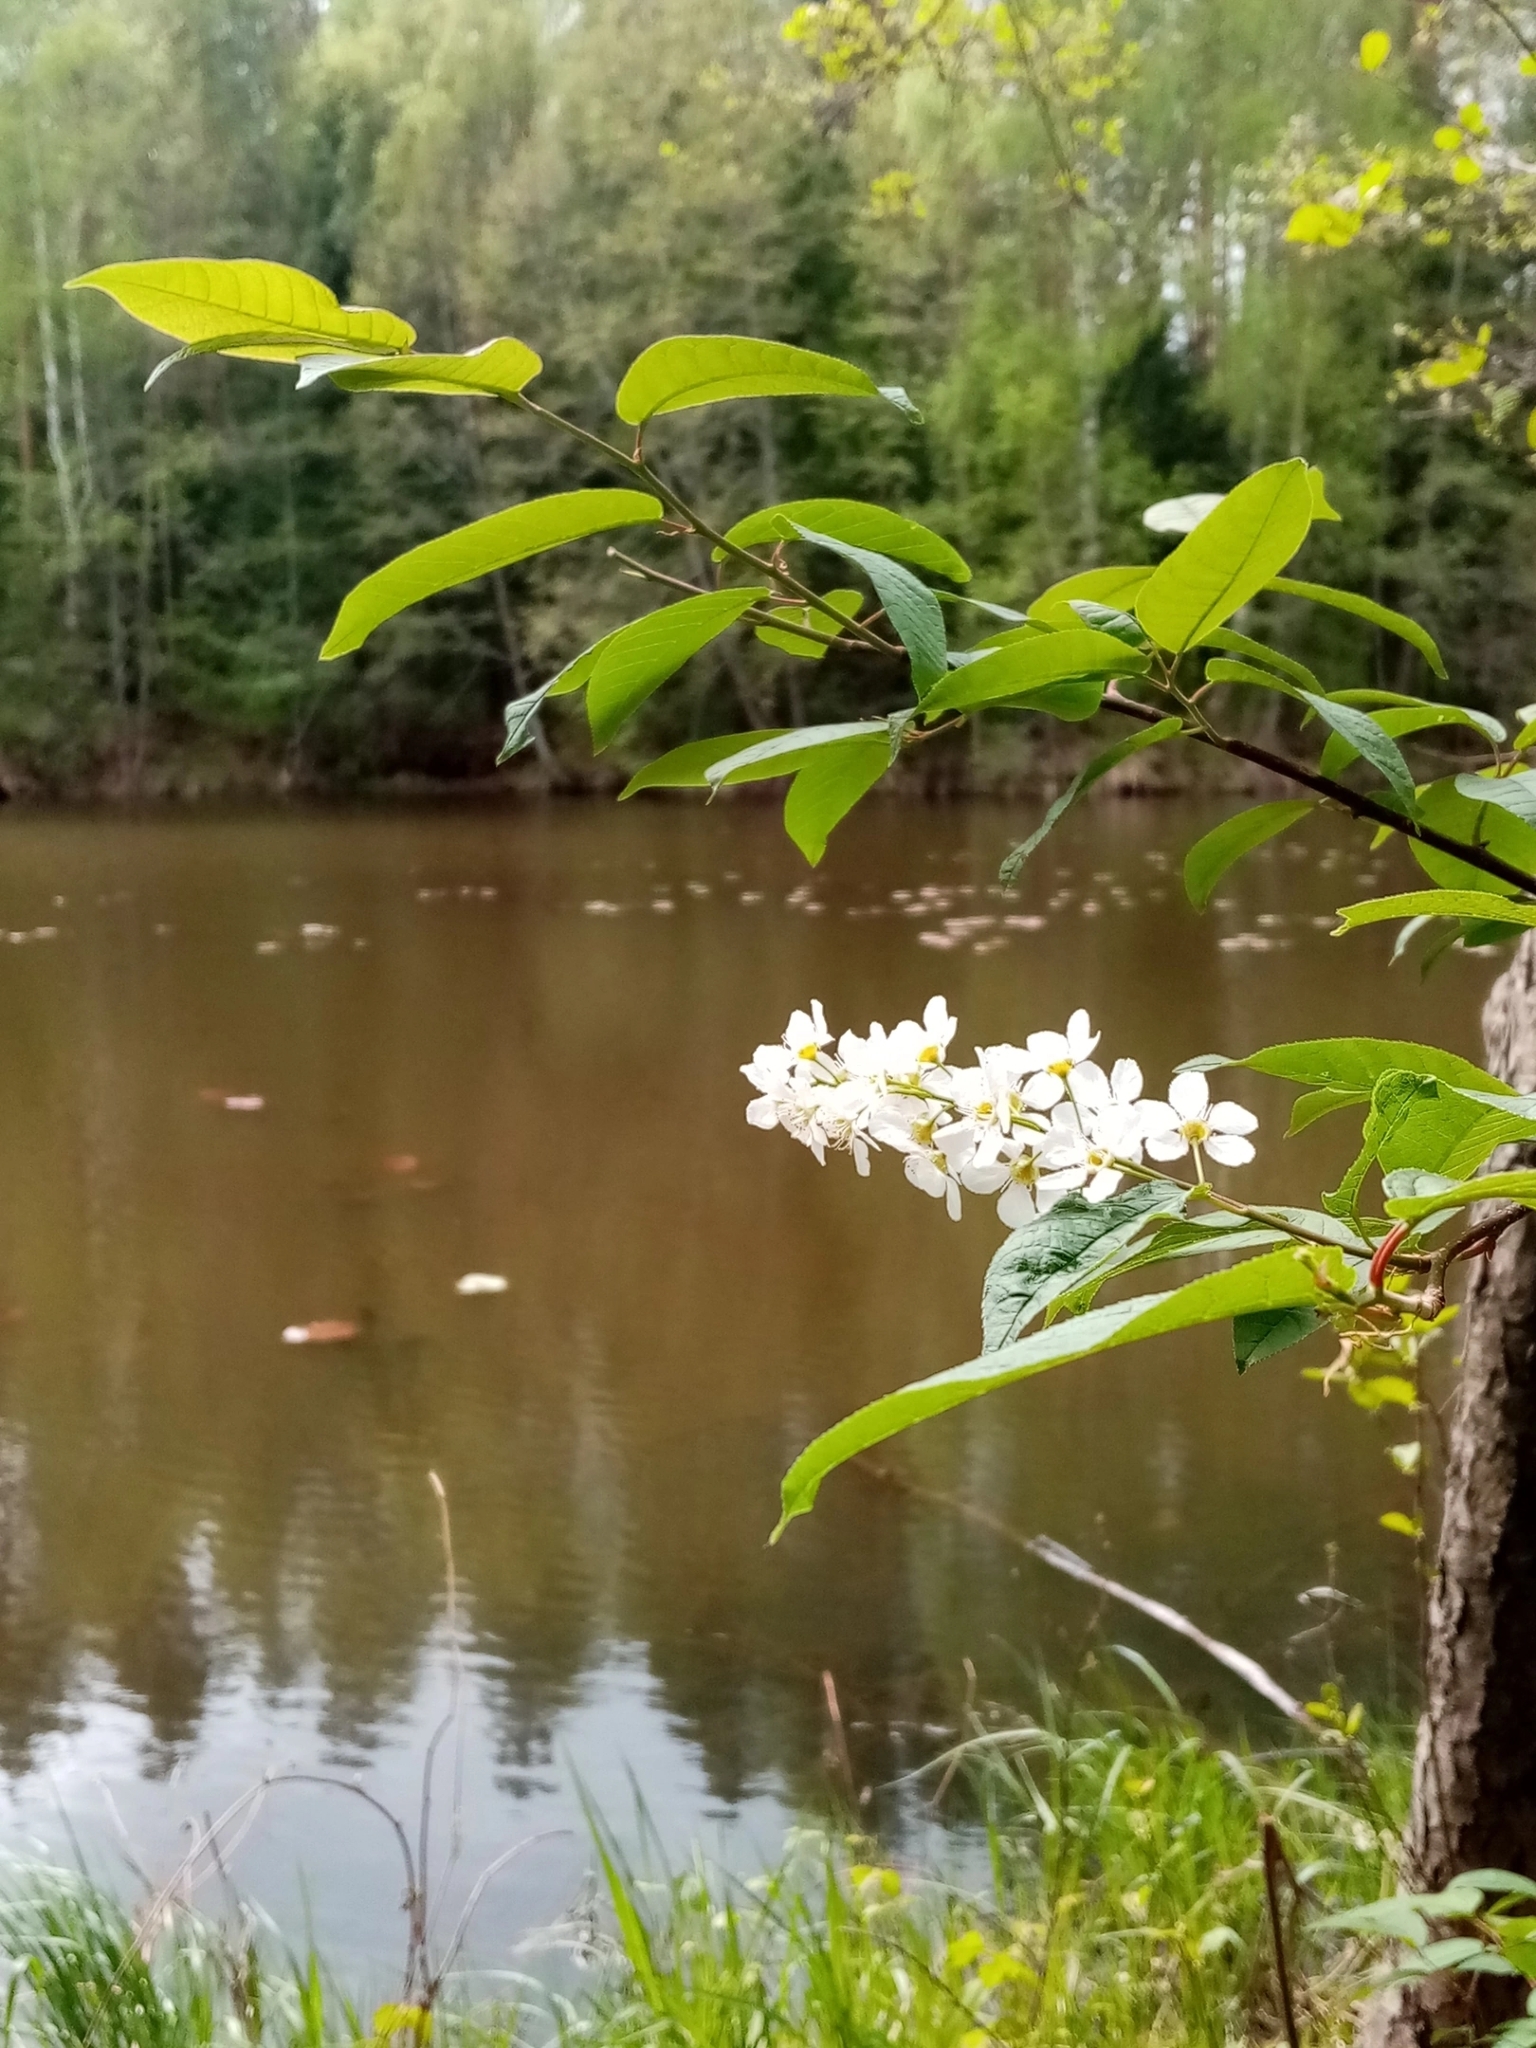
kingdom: Plantae
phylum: Tracheophyta
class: Magnoliopsida
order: Rosales
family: Rosaceae
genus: Prunus
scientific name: Prunus padus
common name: Bird cherry
